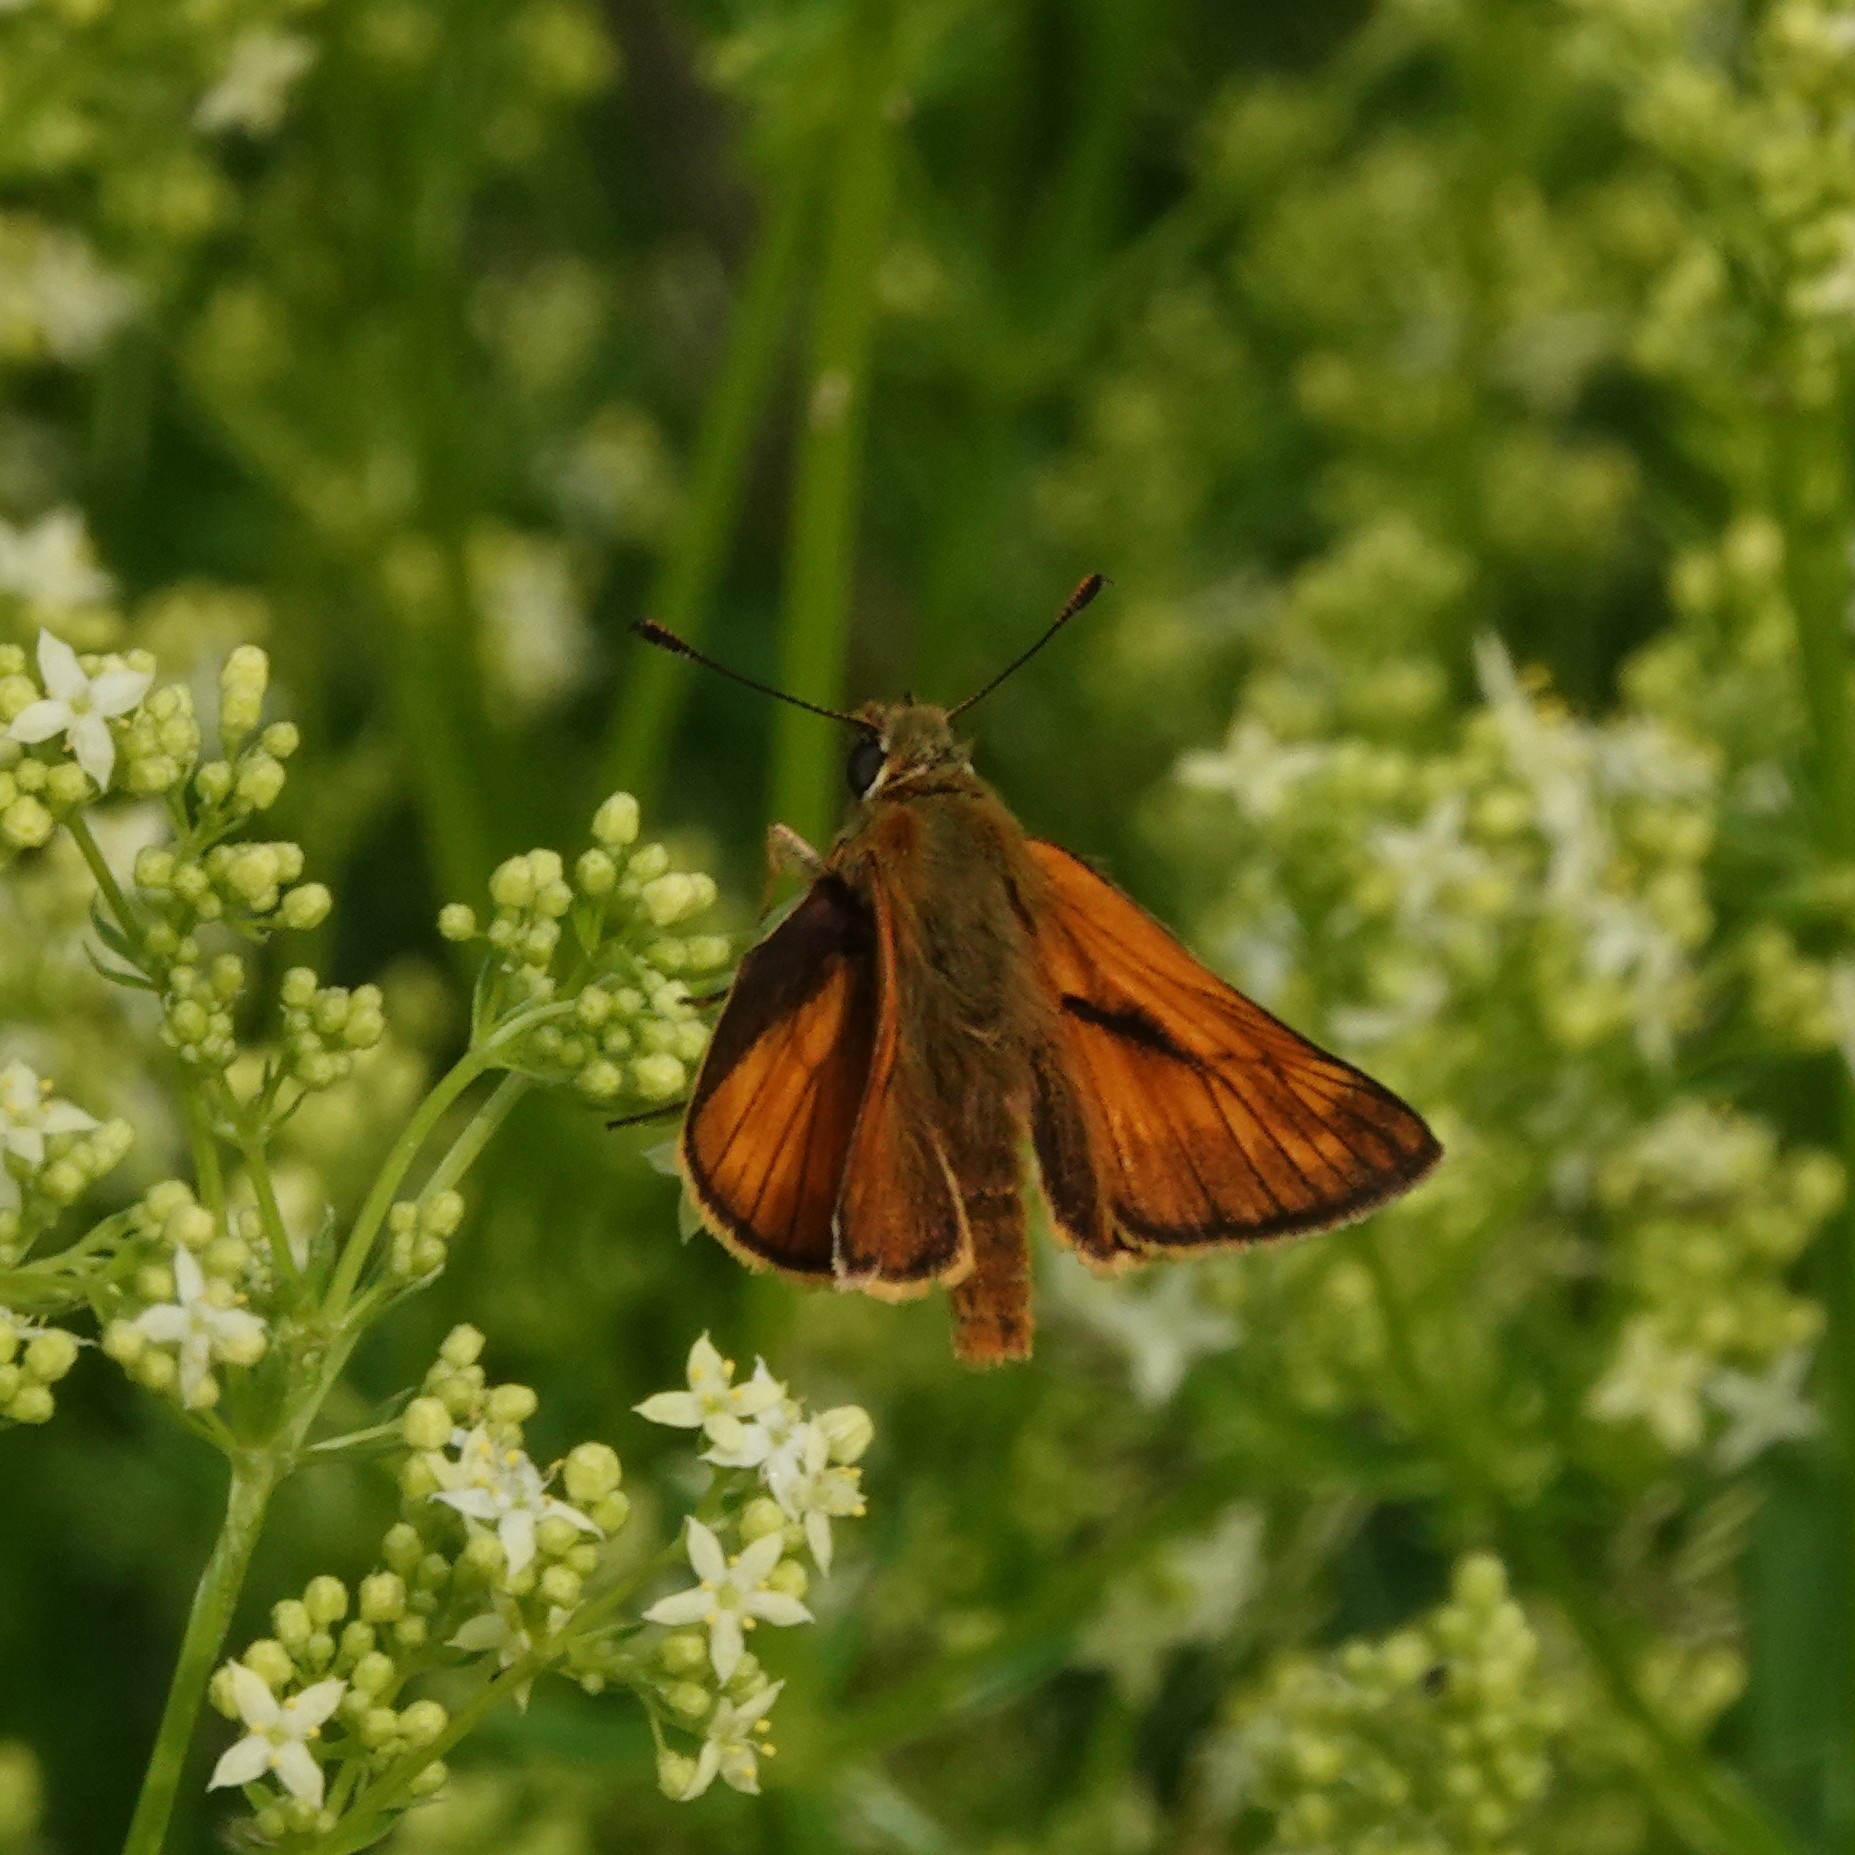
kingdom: Animalia
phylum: Arthropoda
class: Insecta
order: Lepidoptera
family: Hesperiidae
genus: Ochlodes
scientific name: Ochlodes venata
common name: Large skipper
